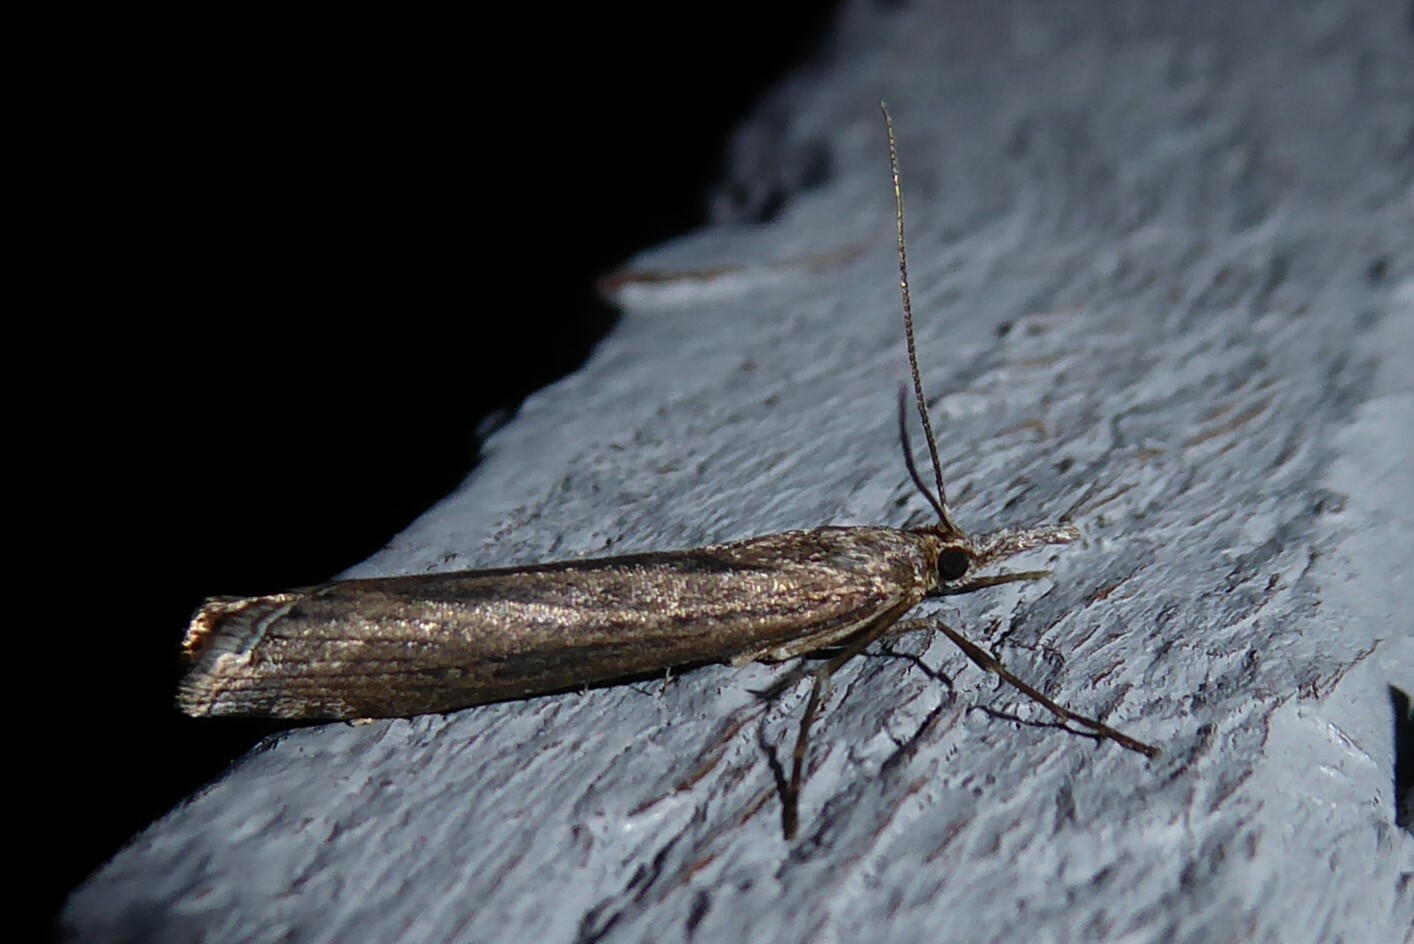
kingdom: Animalia
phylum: Arthropoda
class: Insecta
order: Lepidoptera
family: Crambidae
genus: Orocrambus
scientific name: Orocrambus cyclopicus
